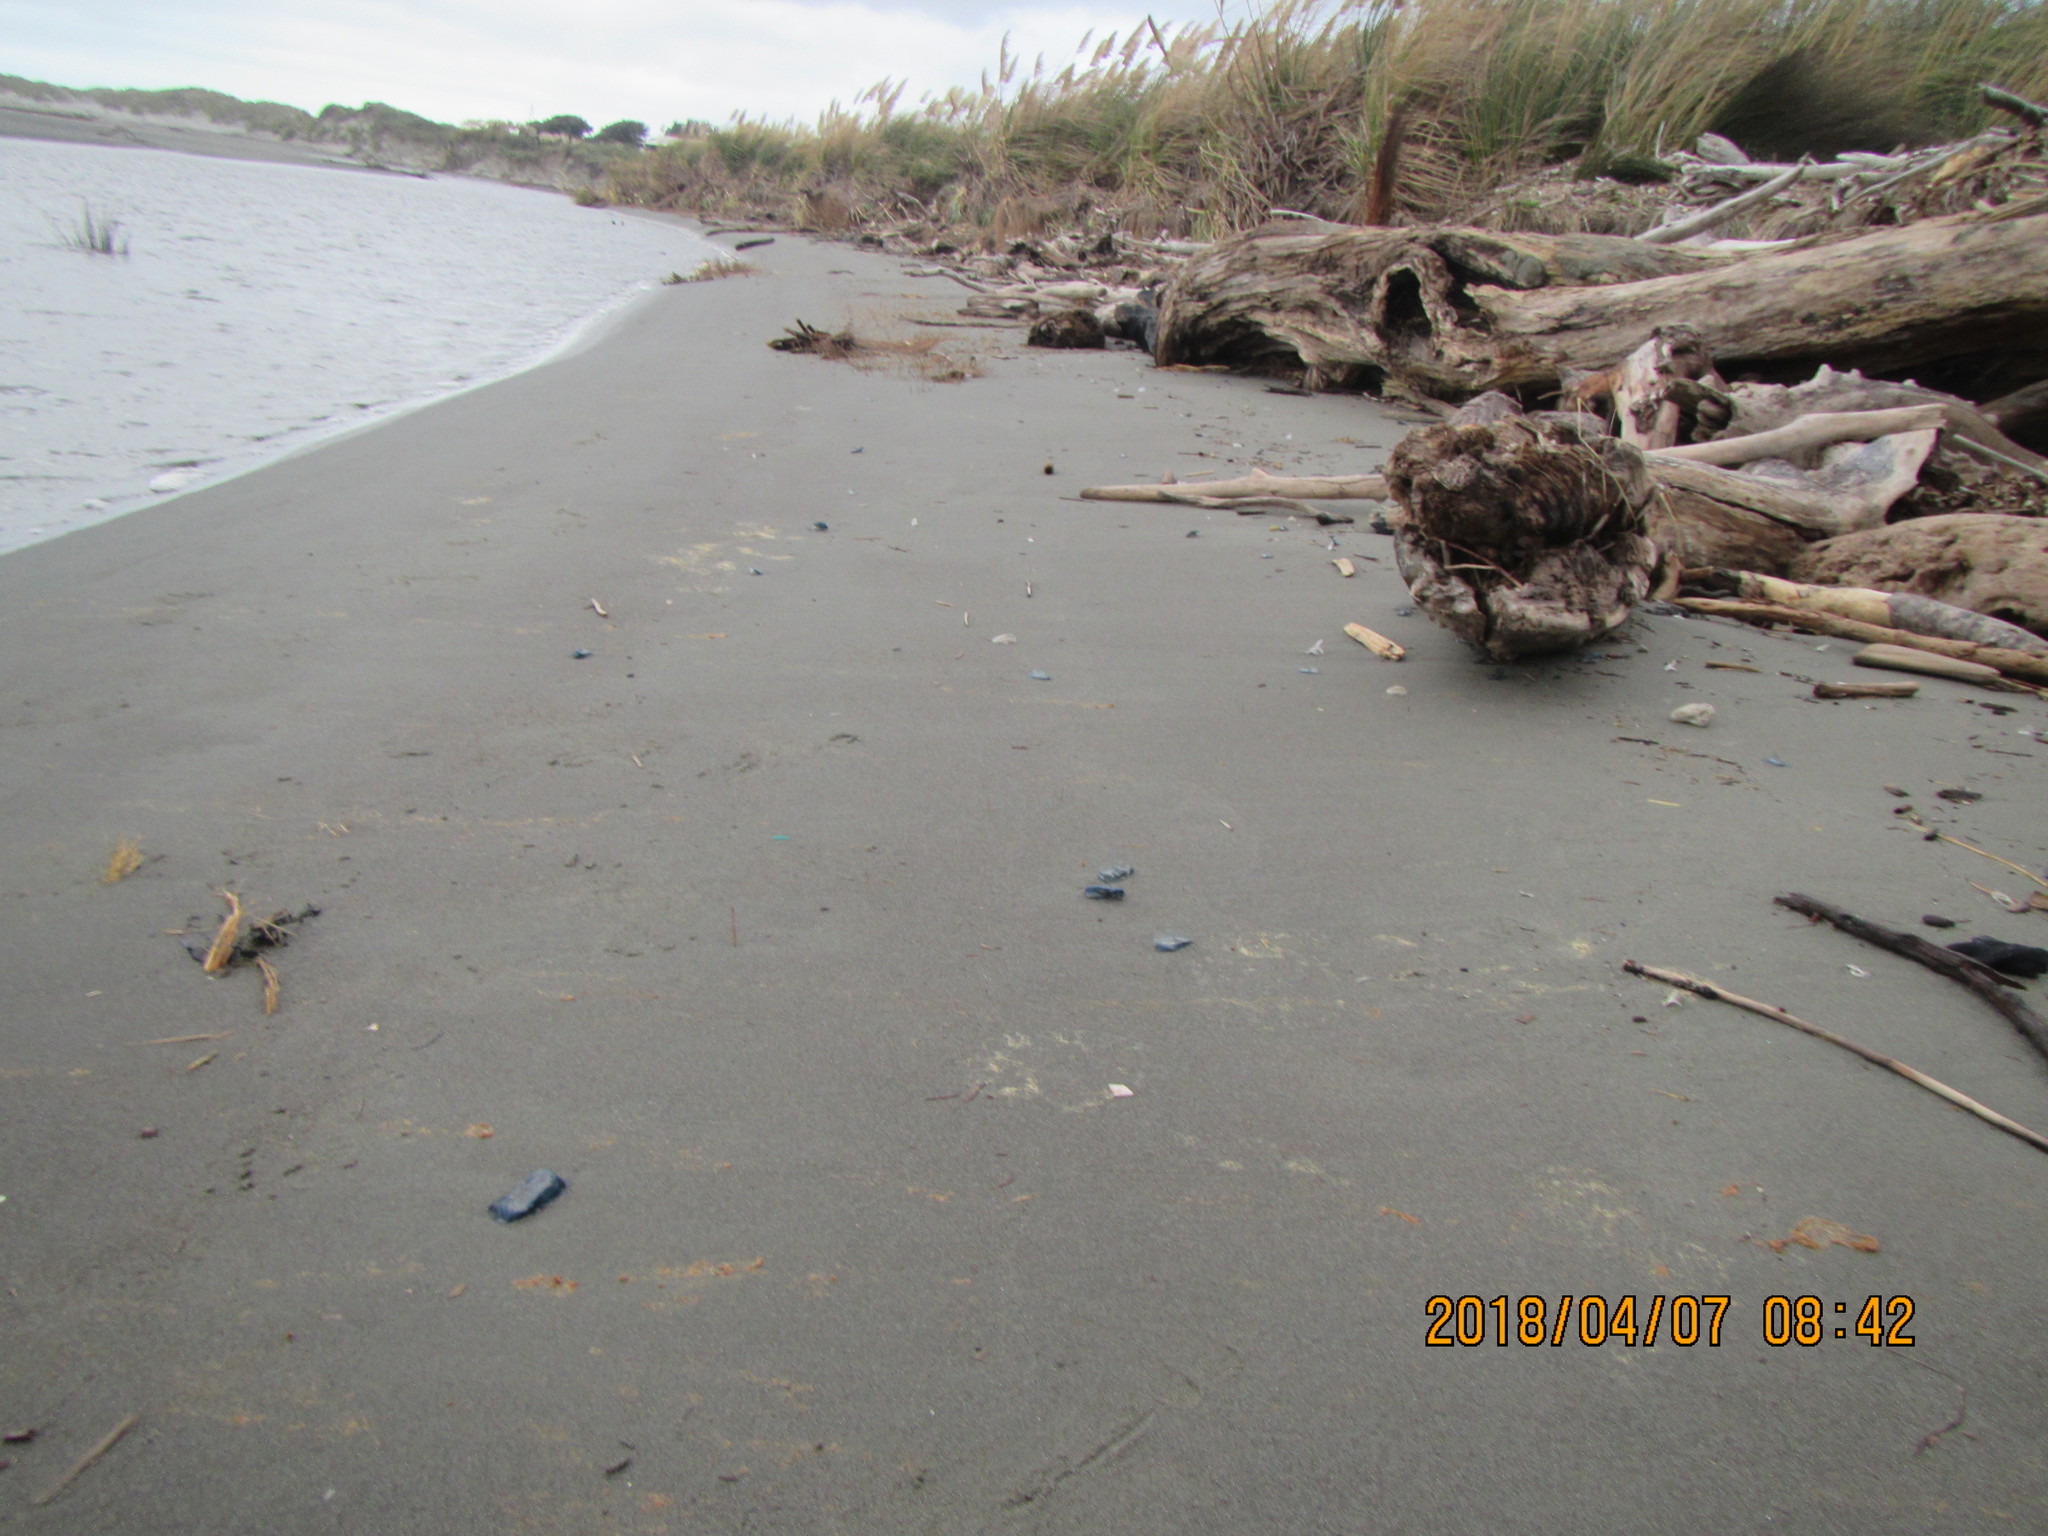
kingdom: Animalia
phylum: Cnidaria
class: Hydrozoa
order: Anthoathecata
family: Porpitidae
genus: Velella
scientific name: Velella velella
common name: By-the-wind-sailor
